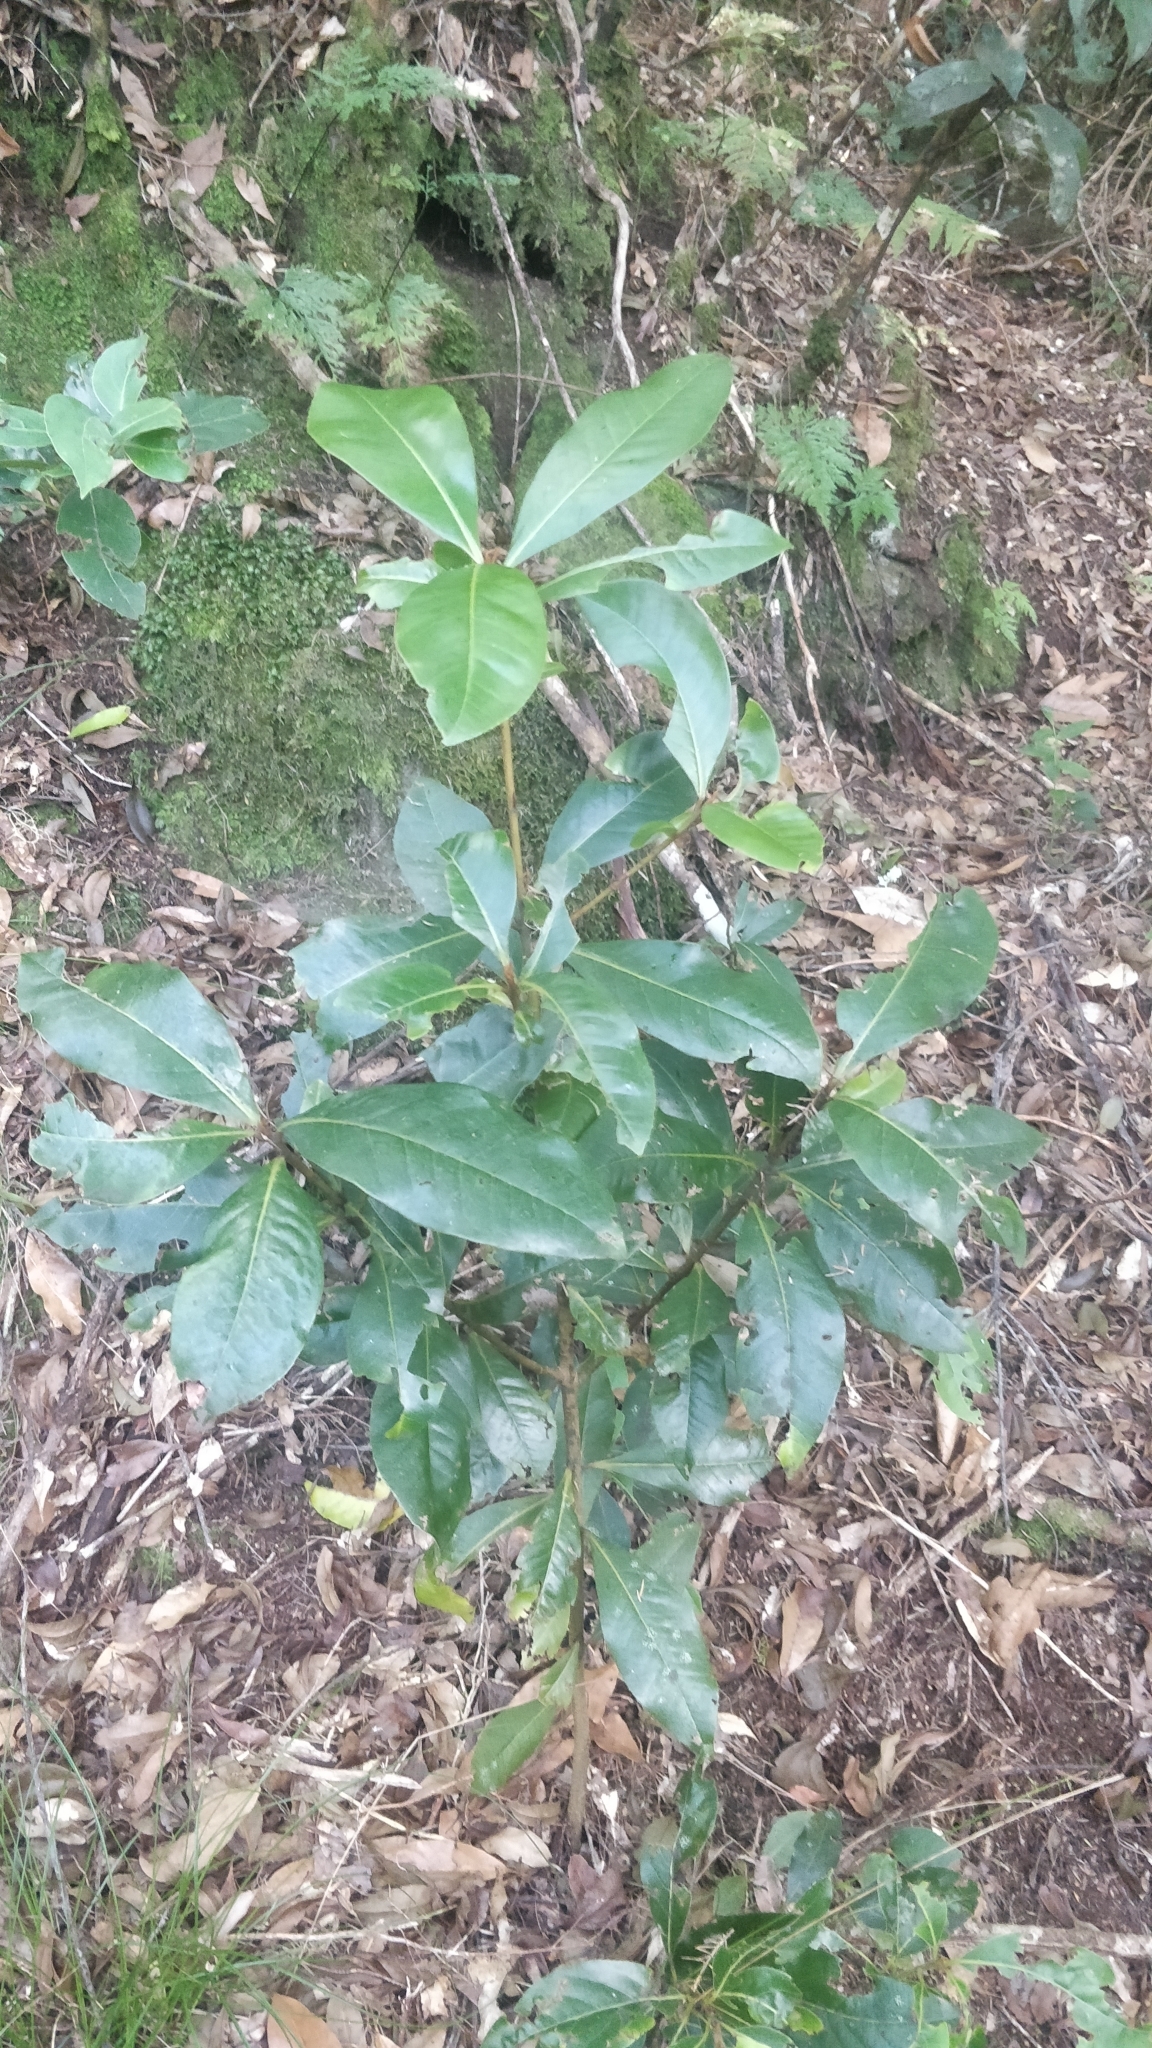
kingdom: Plantae
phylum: Tracheophyta
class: Magnoliopsida
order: Ericales
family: Primulaceae
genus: Heberdenia
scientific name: Heberdenia excelsa
